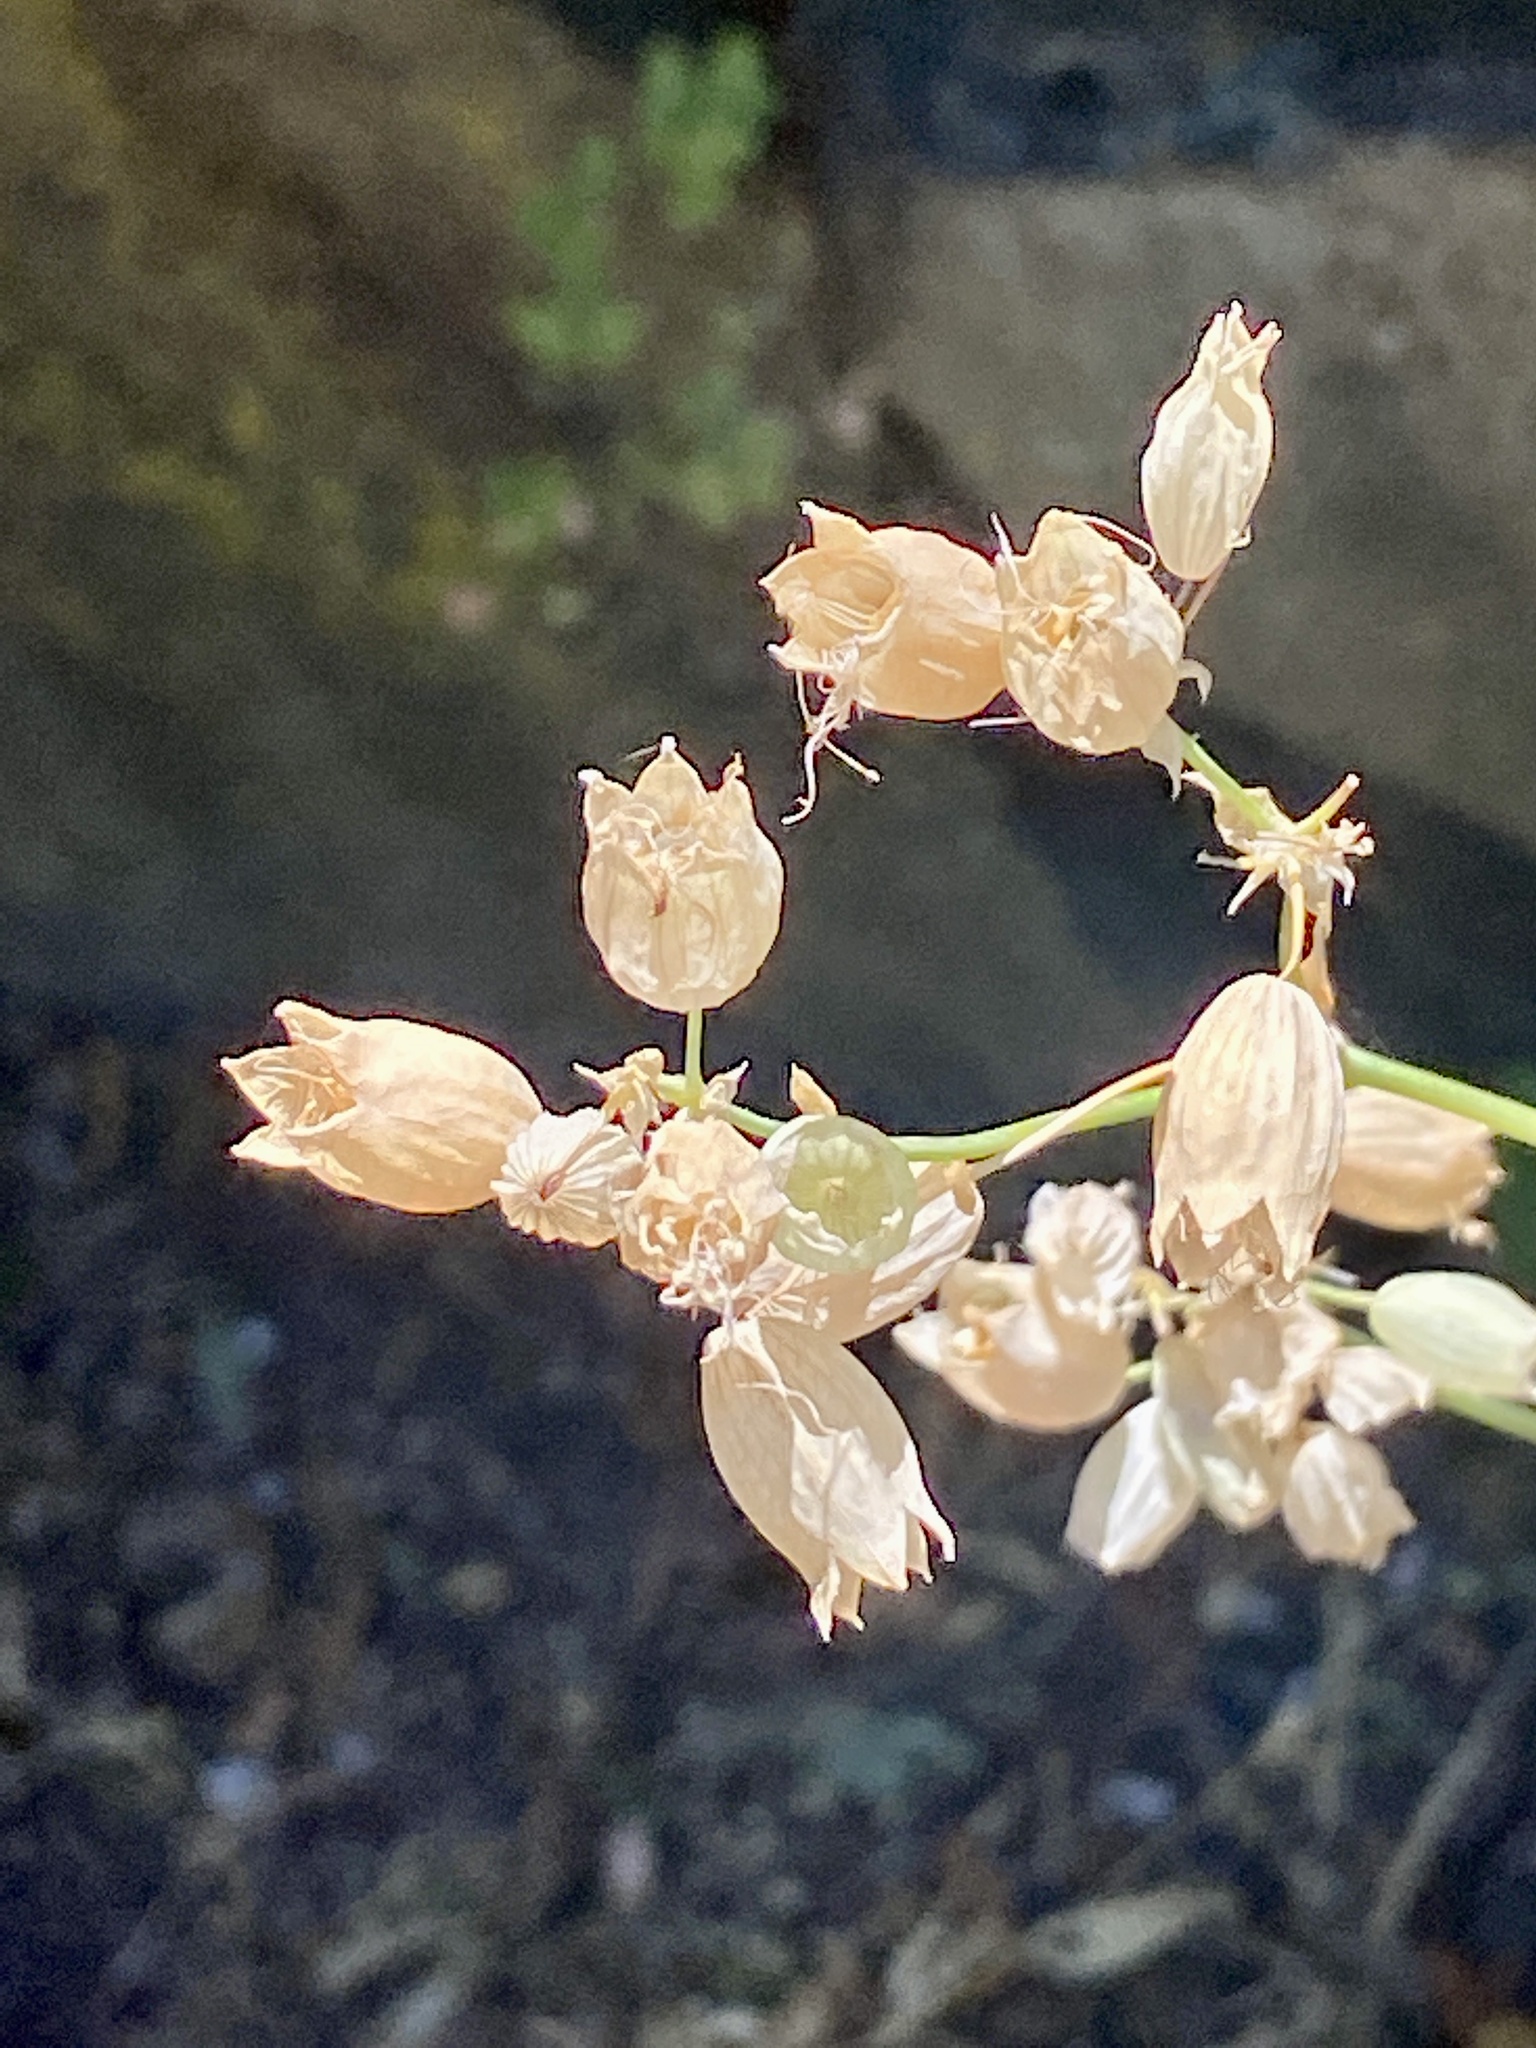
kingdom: Plantae
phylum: Tracheophyta
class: Magnoliopsida
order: Caryophyllales
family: Caryophyllaceae
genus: Silene
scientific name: Silene vulgaris
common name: Bladder campion
